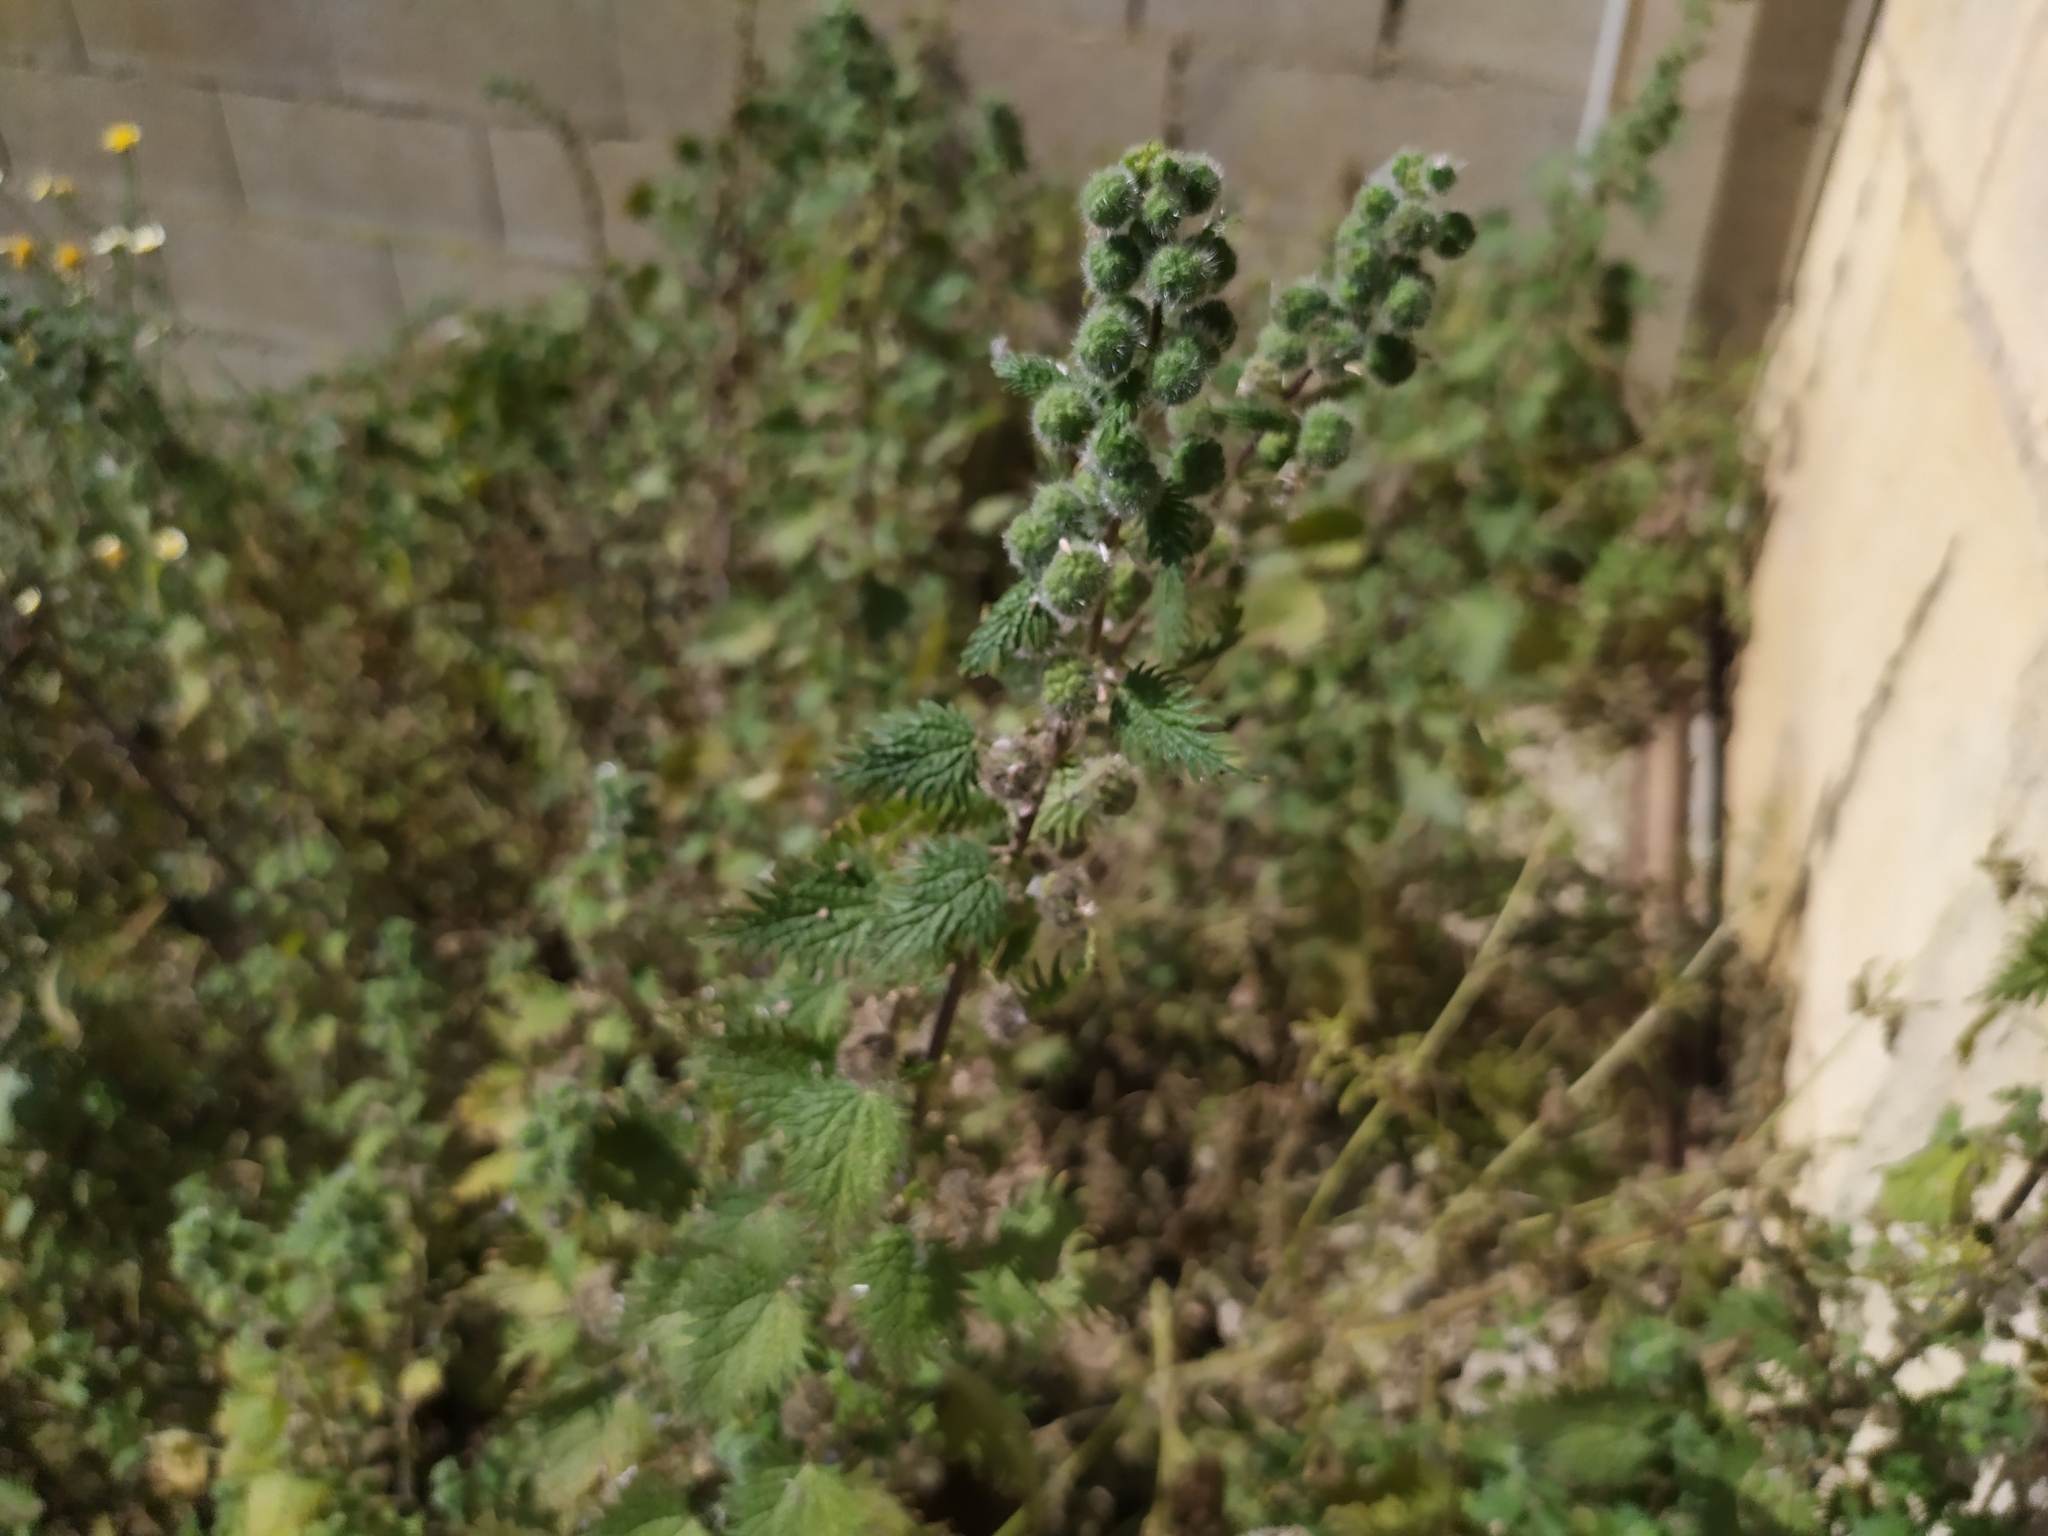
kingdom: Plantae
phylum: Tracheophyta
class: Magnoliopsida
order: Rosales
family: Urticaceae
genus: Urtica
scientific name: Urtica pilulifera
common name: Roman nettle
